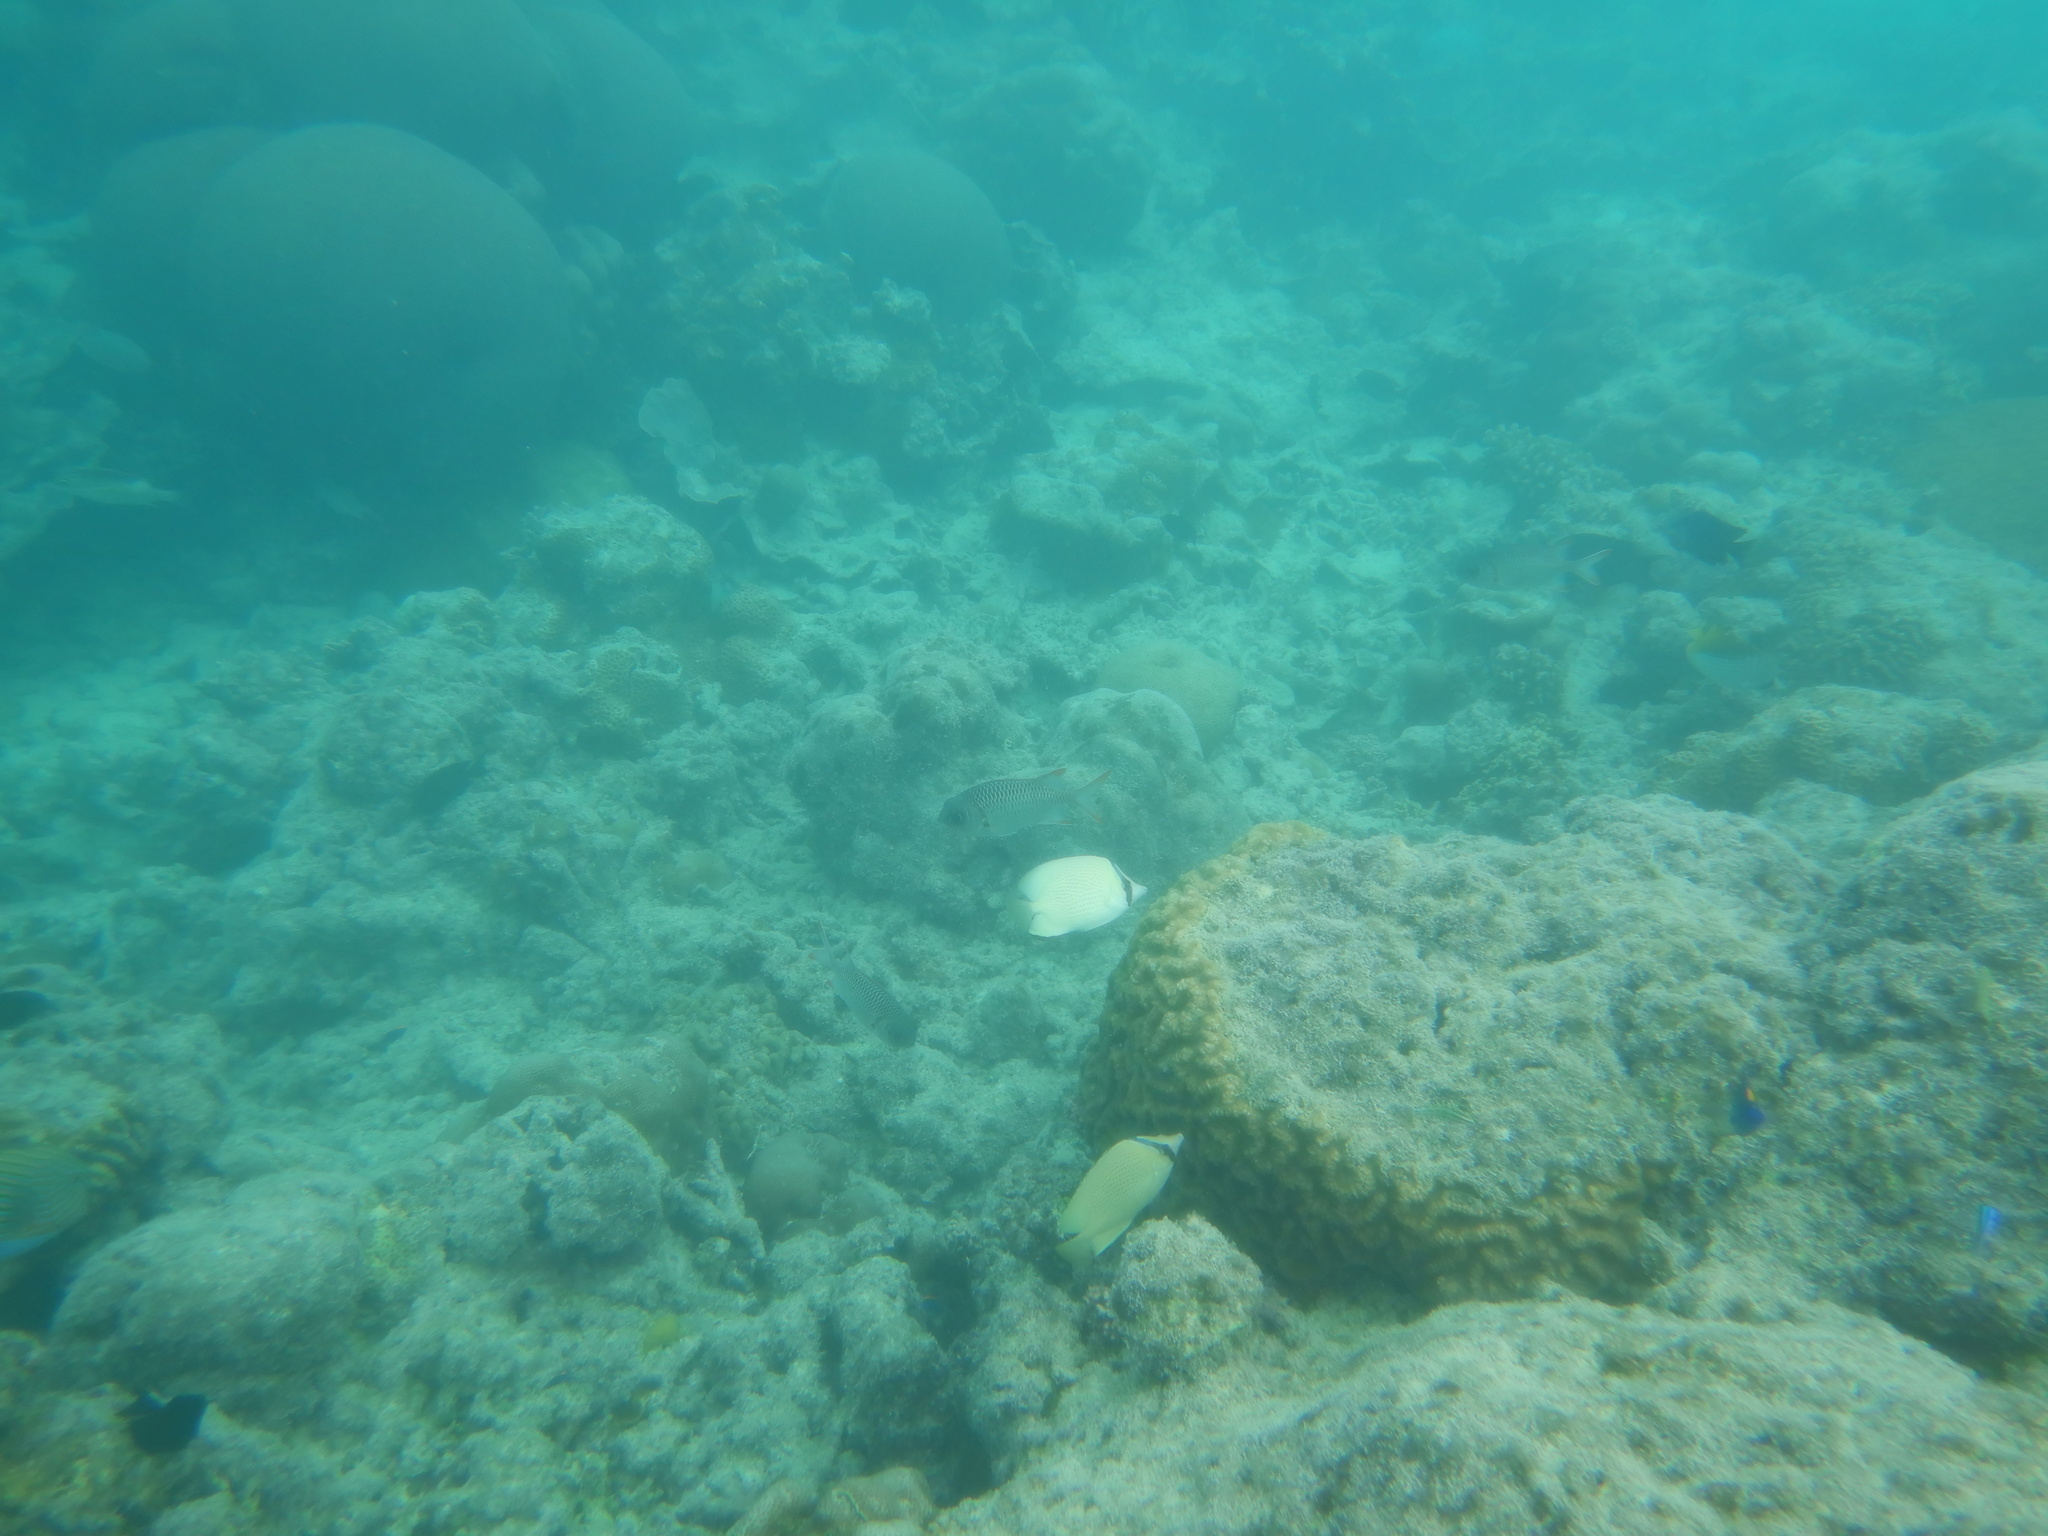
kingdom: Animalia
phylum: Chordata
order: Perciformes
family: Chaetodontidae
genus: Chaetodon
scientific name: Chaetodon citrinellus
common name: Speckled butterflyfish
